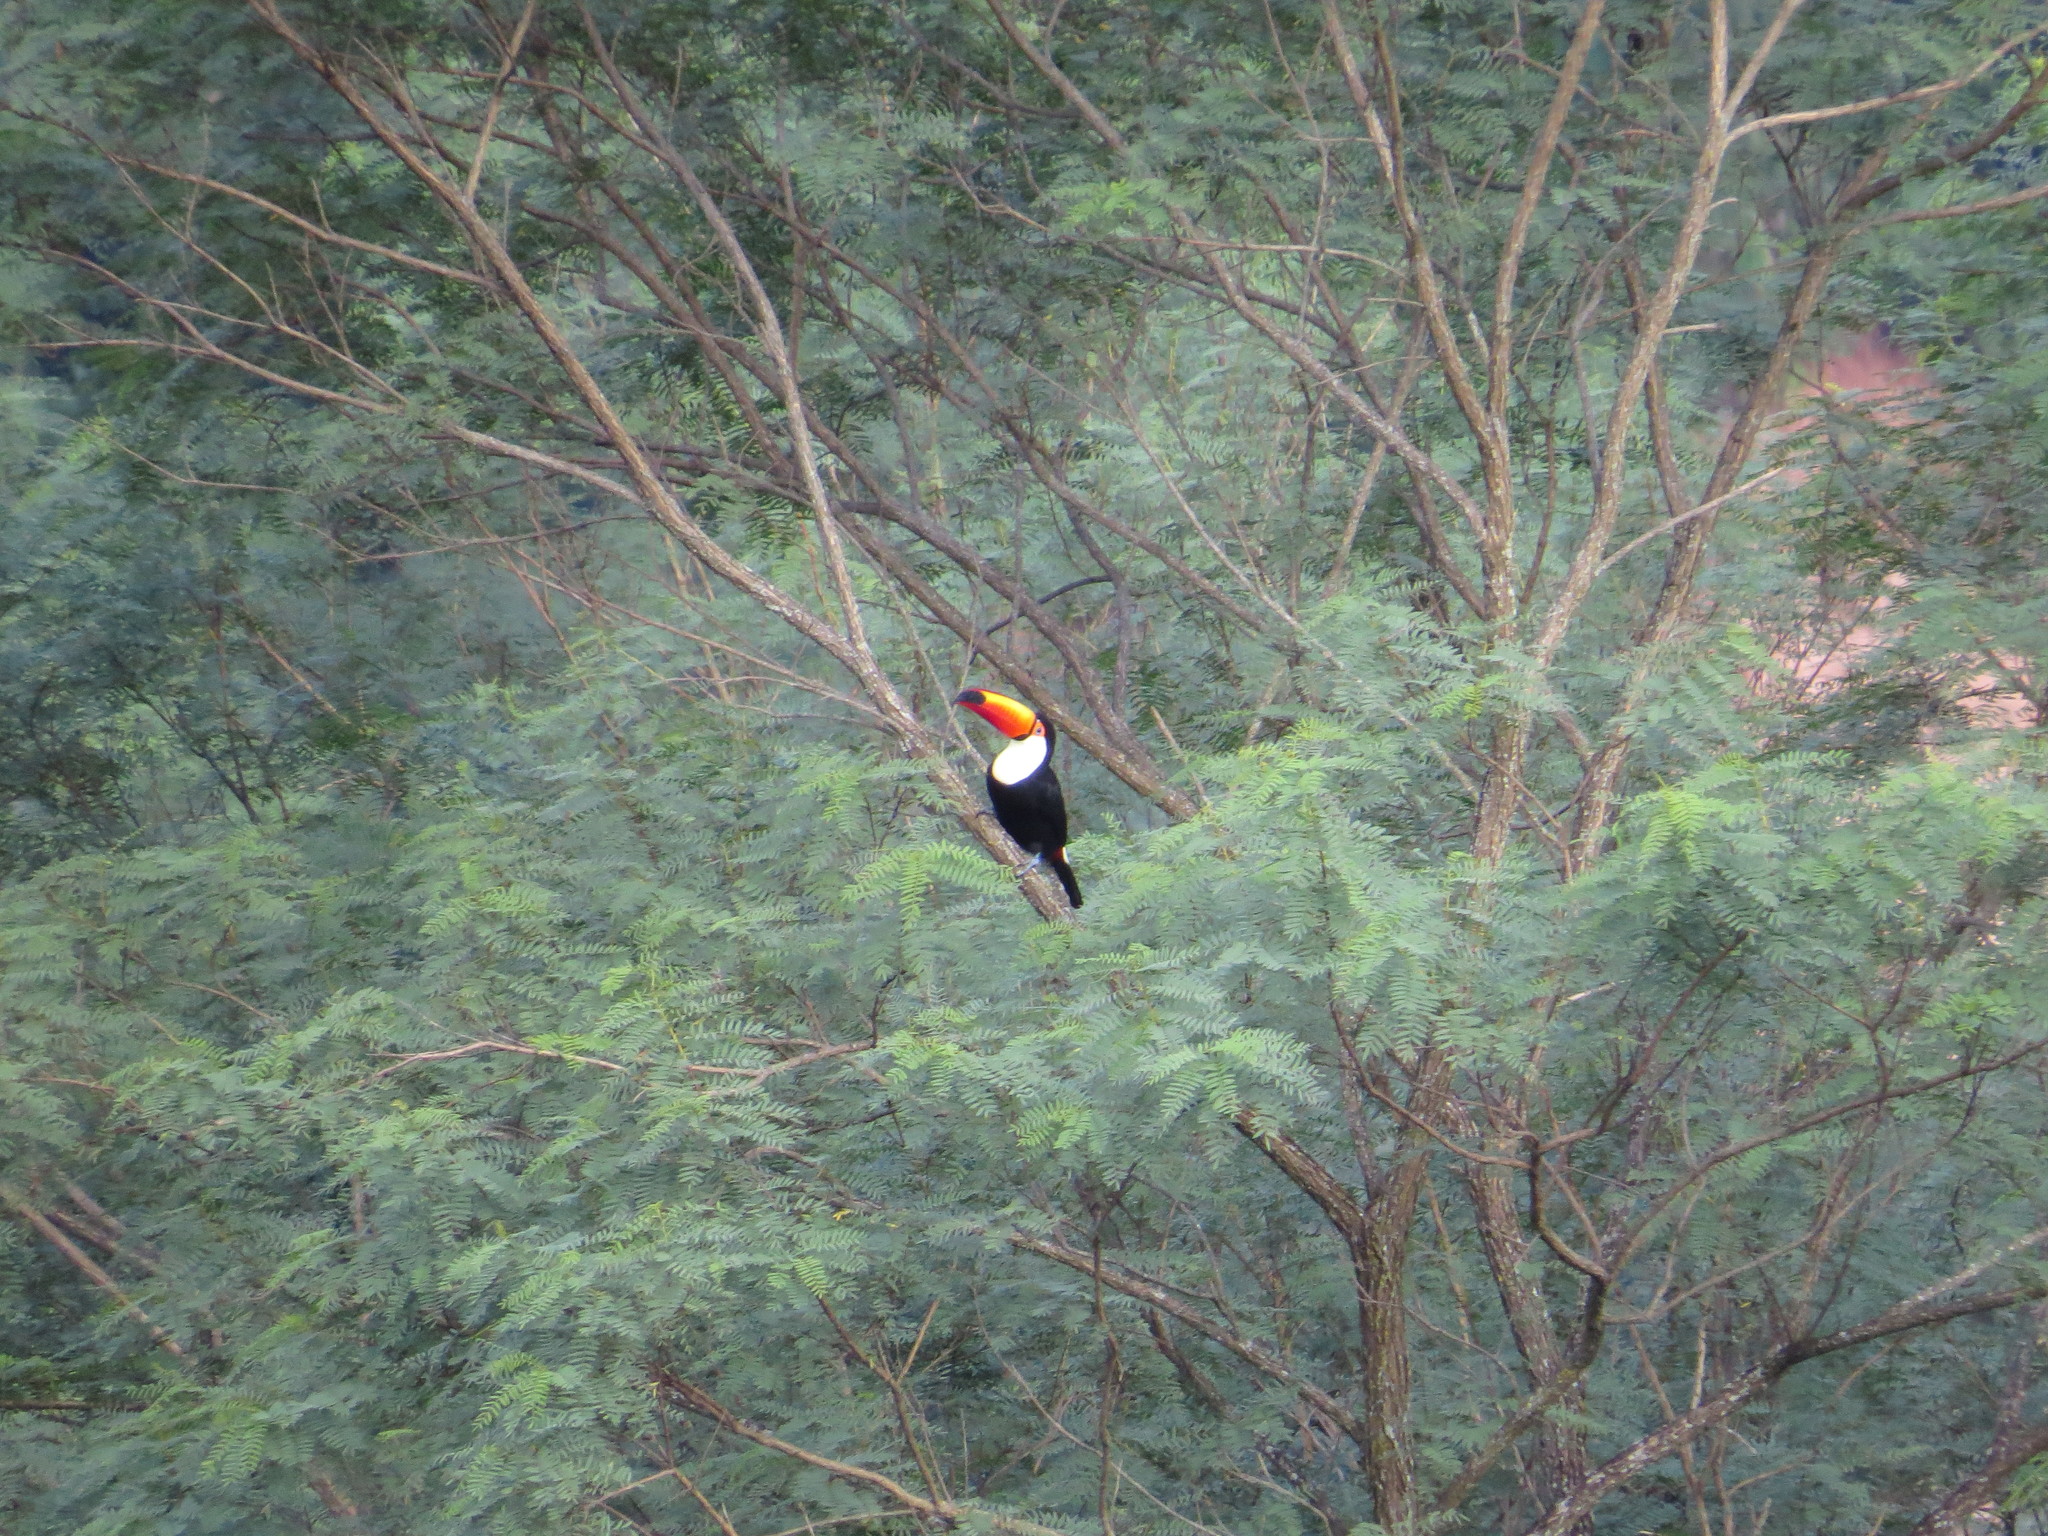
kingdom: Animalia
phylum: Chordata
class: Aves
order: Piciformes
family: Ramphastidae
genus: Ramphastos
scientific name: Ramphastos toco
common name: Toco toucan
